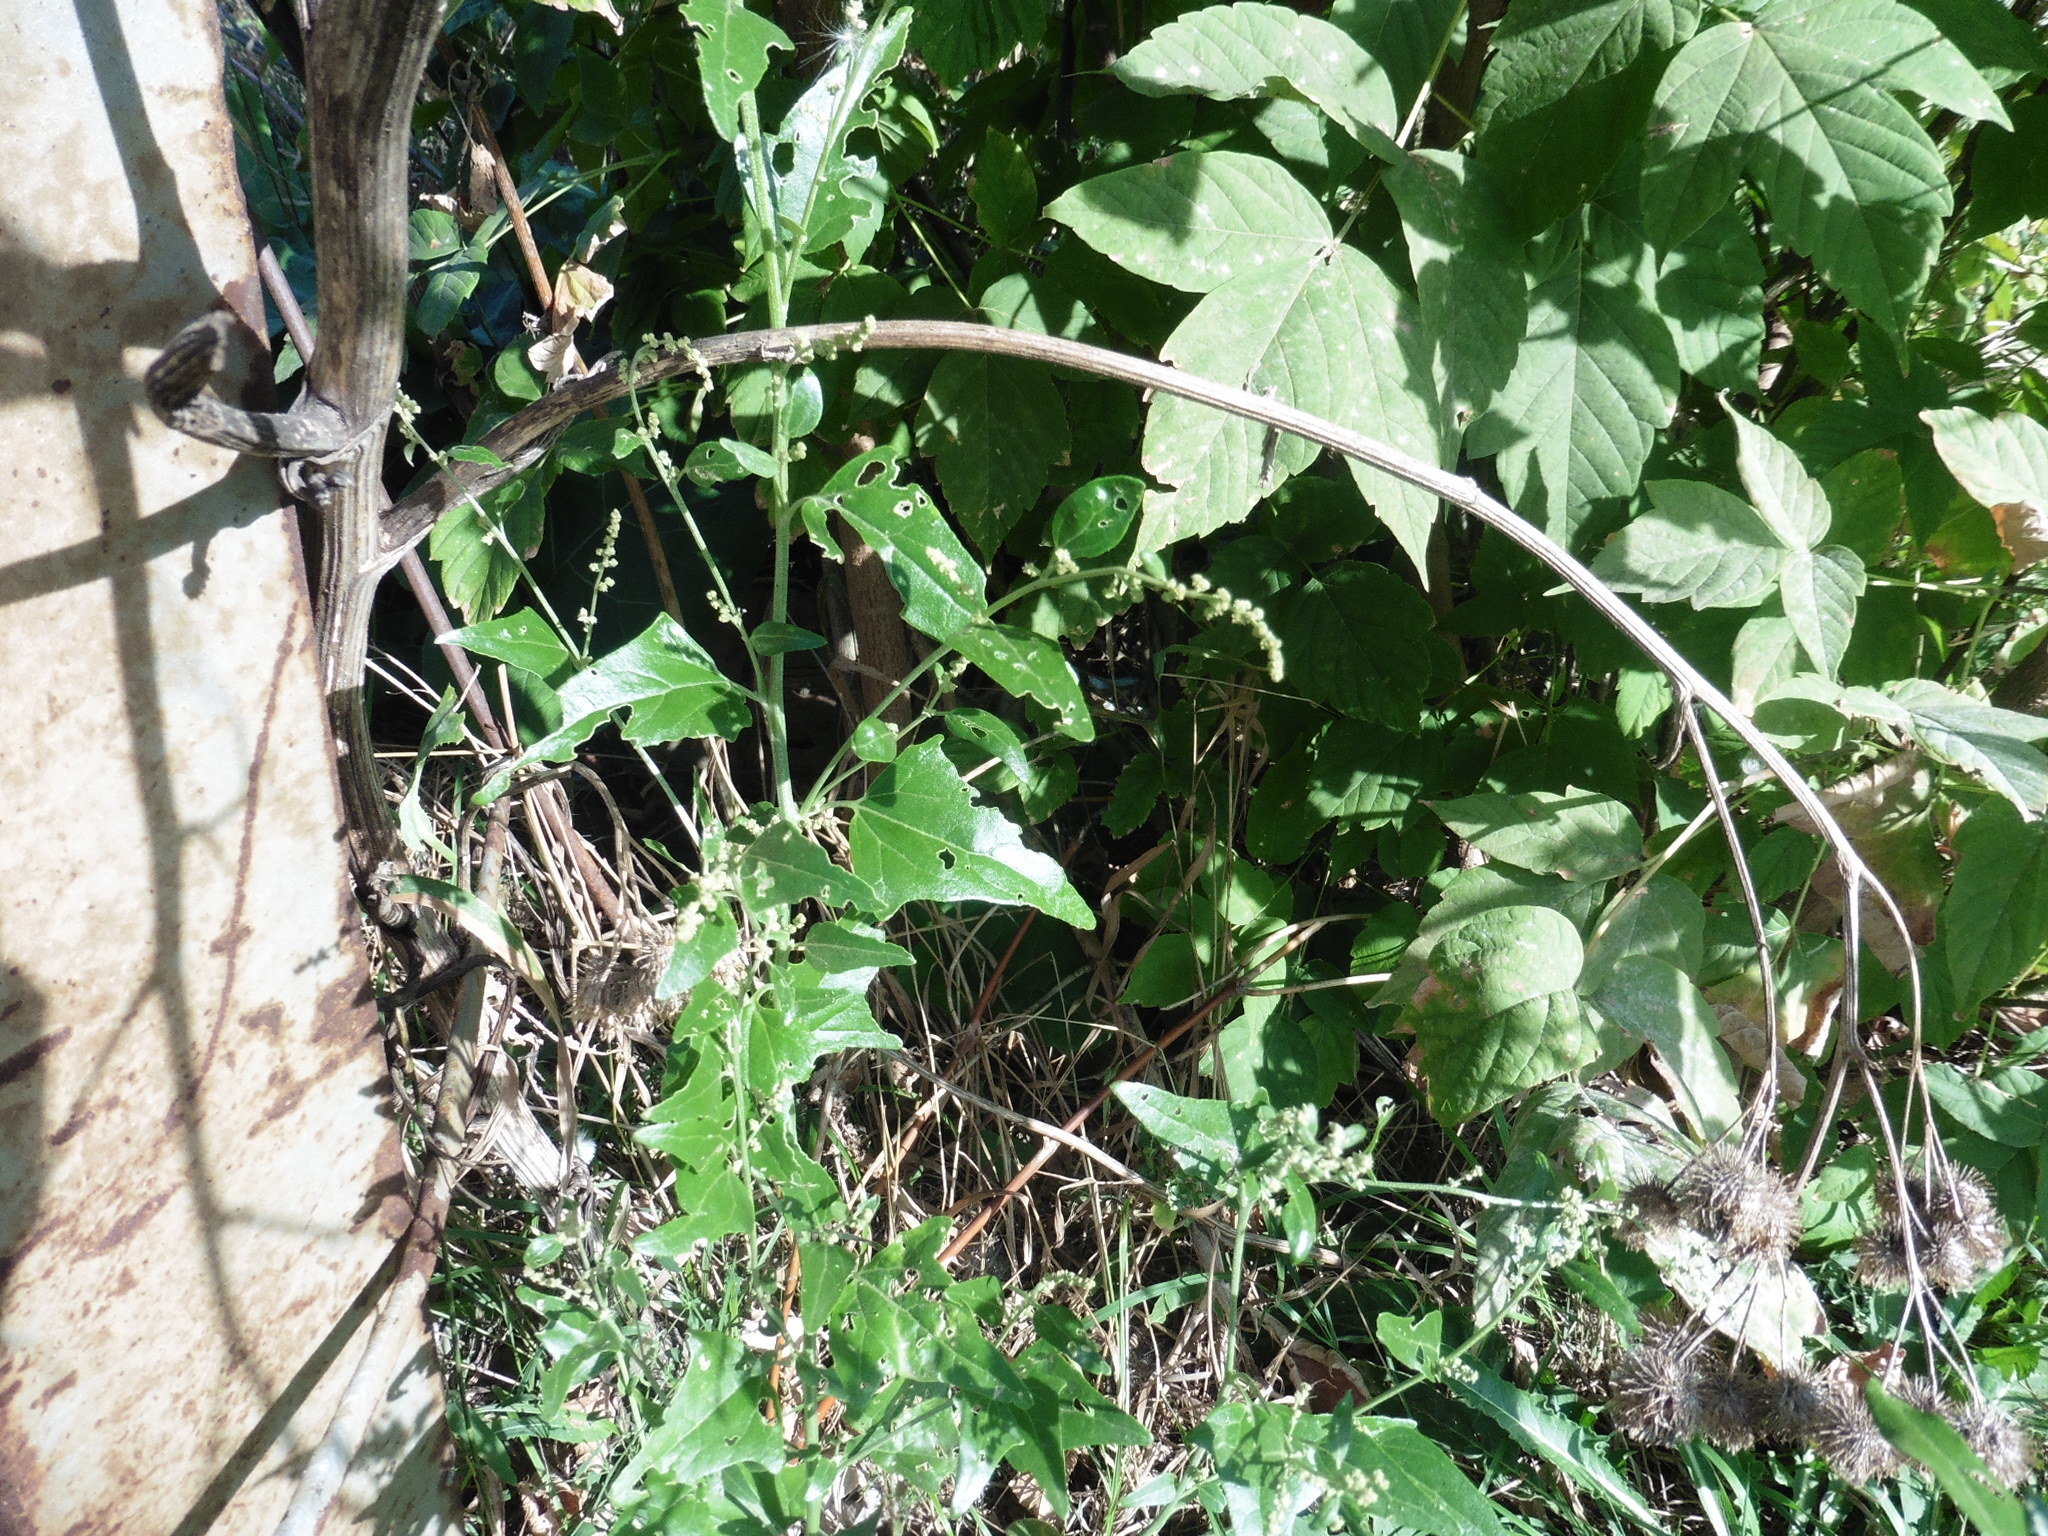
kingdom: Plantae
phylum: Tracheophyta
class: Magnoliopsida
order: Caryophyllales
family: Amaranthaceae
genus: Atriplex
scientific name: Atriplex sagittata
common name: Purple orache
